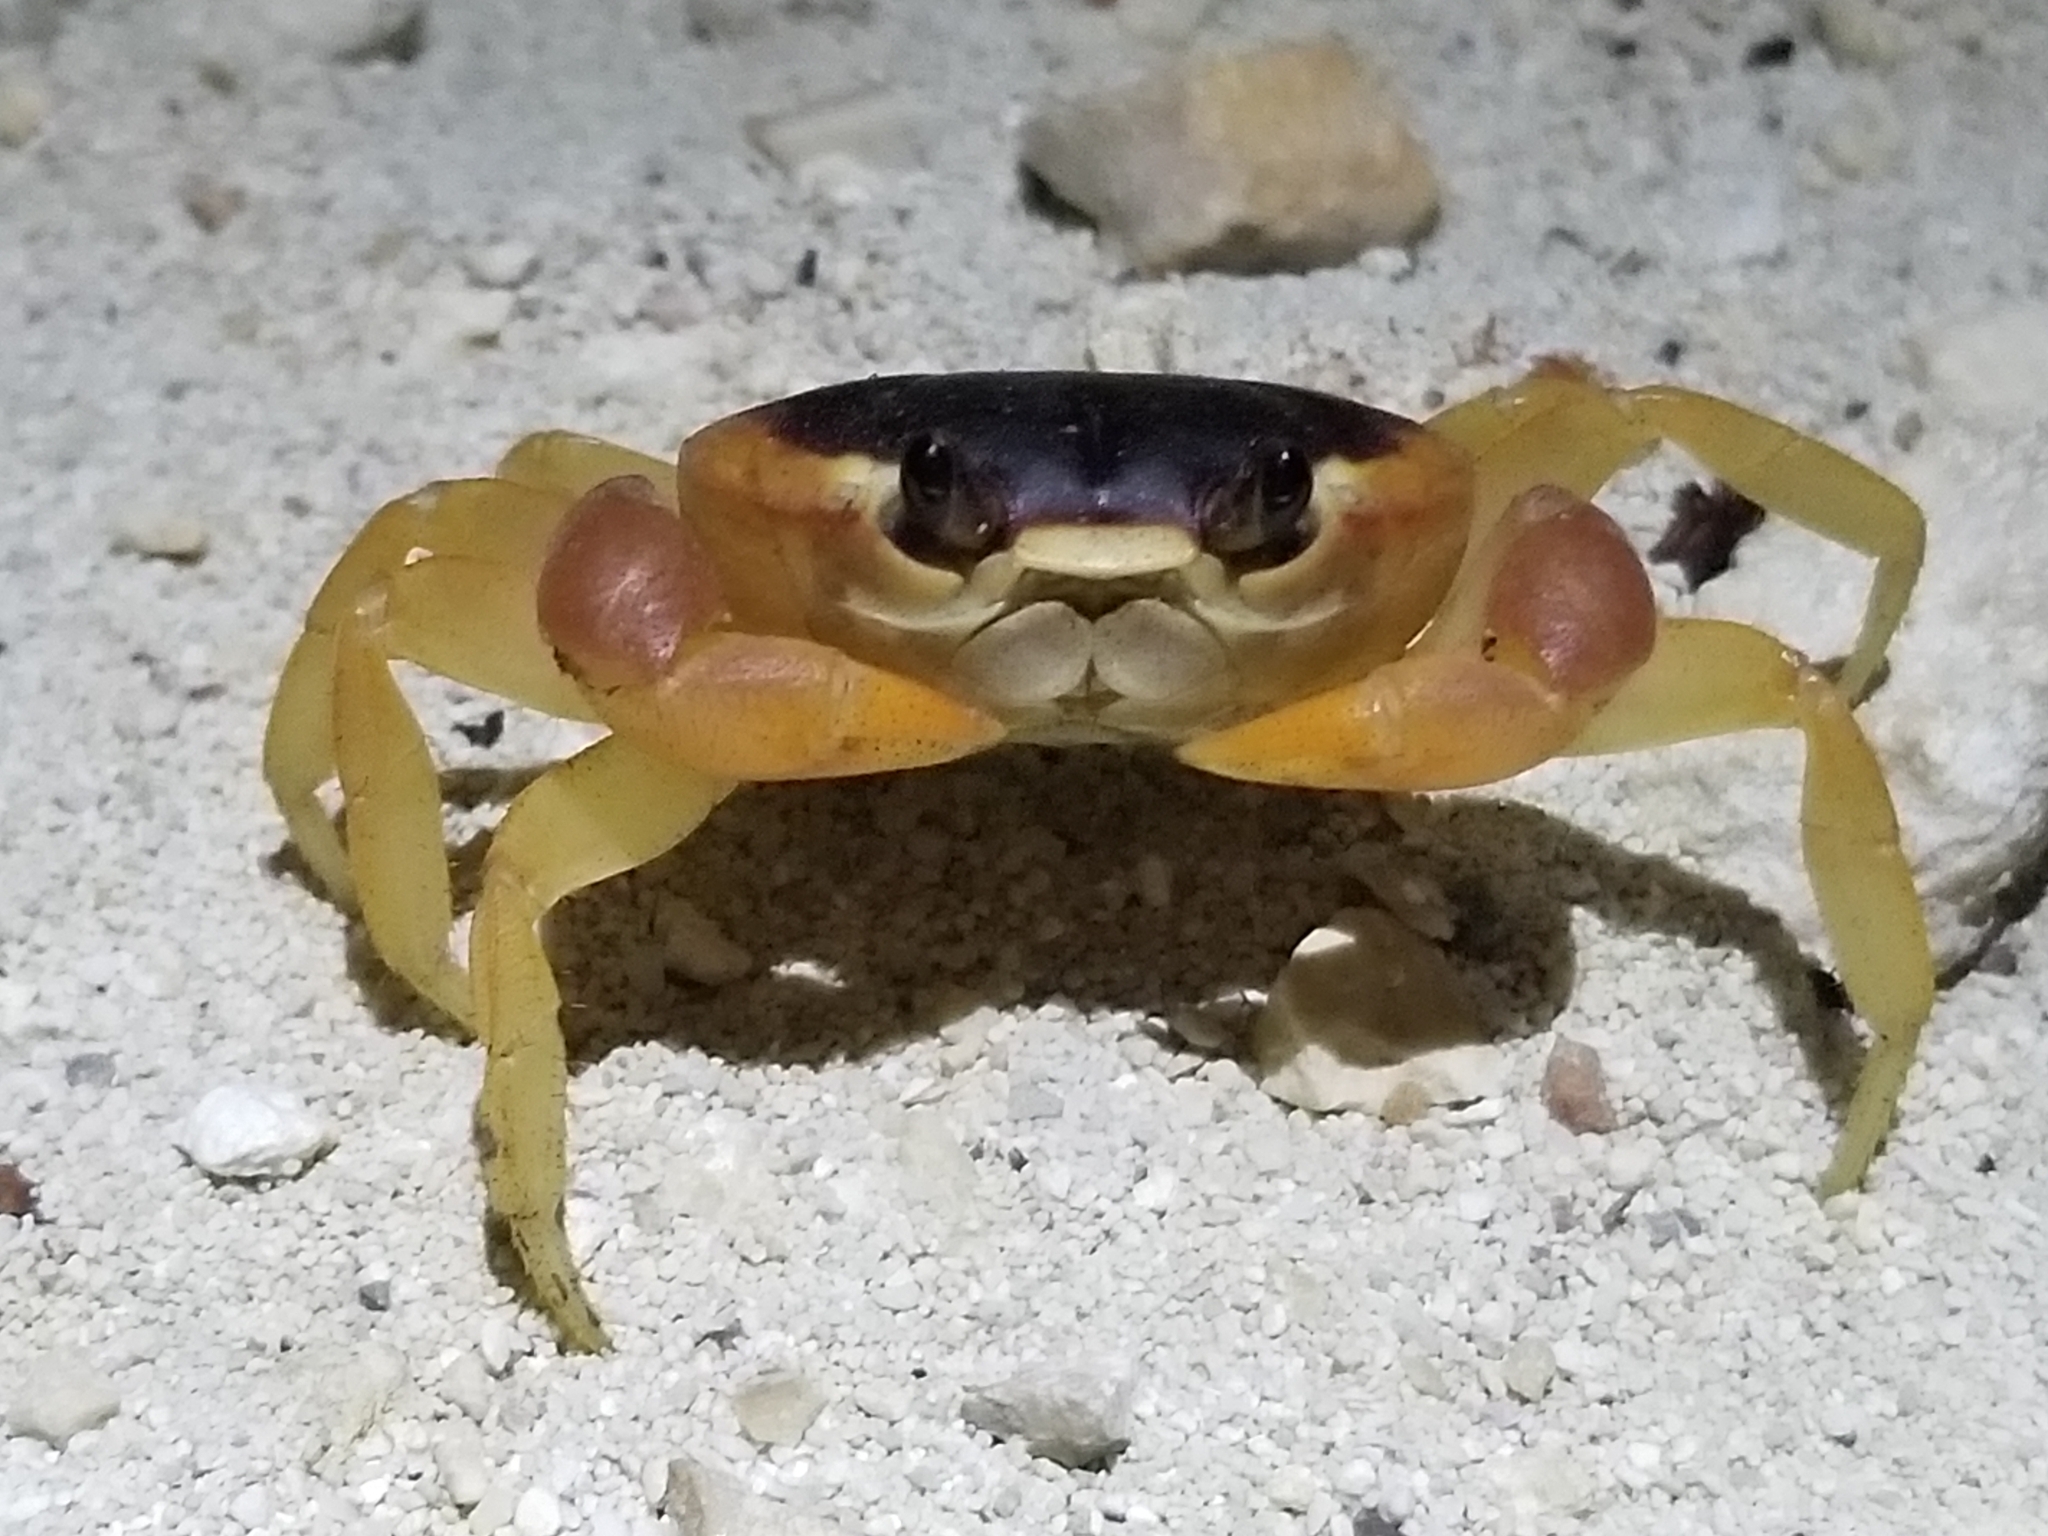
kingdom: Animalia
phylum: Arthropoda
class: Malacostraca
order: Decapoda
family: Gecarcinidae
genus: Gecarcinus
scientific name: Gecarcinus lateralis
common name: Bermuda land crab
